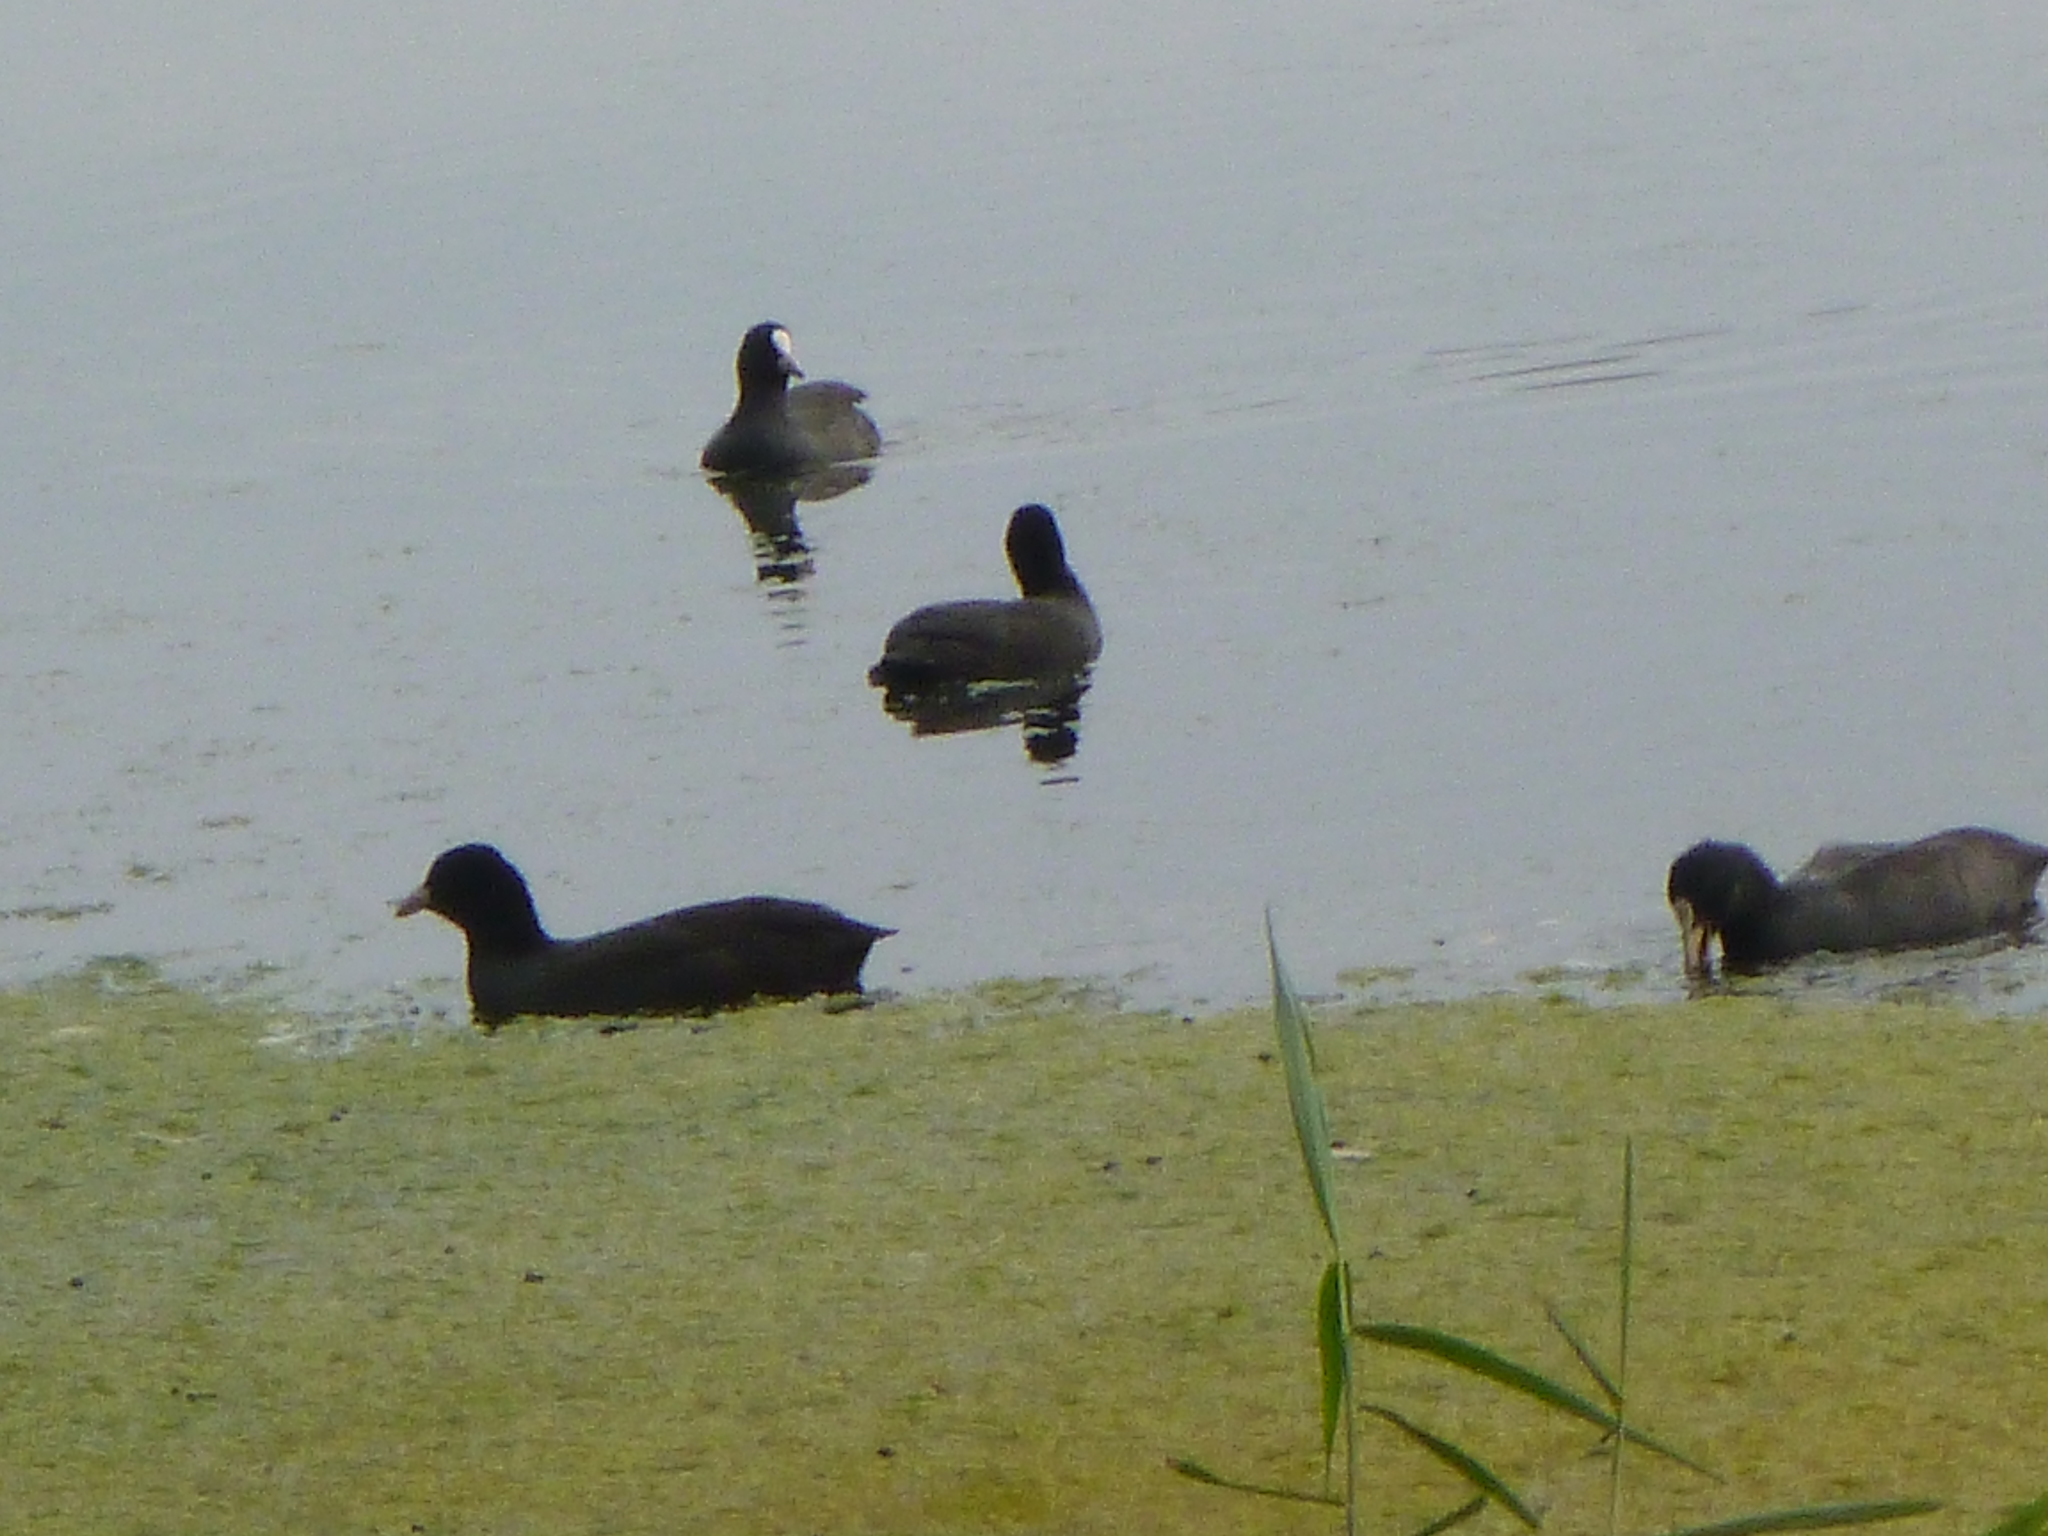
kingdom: Animalia
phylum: Chordata
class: Aves
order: Gruiformes
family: Rallidae
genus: Fulica
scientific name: Fulica atra
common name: Eurasian coot
